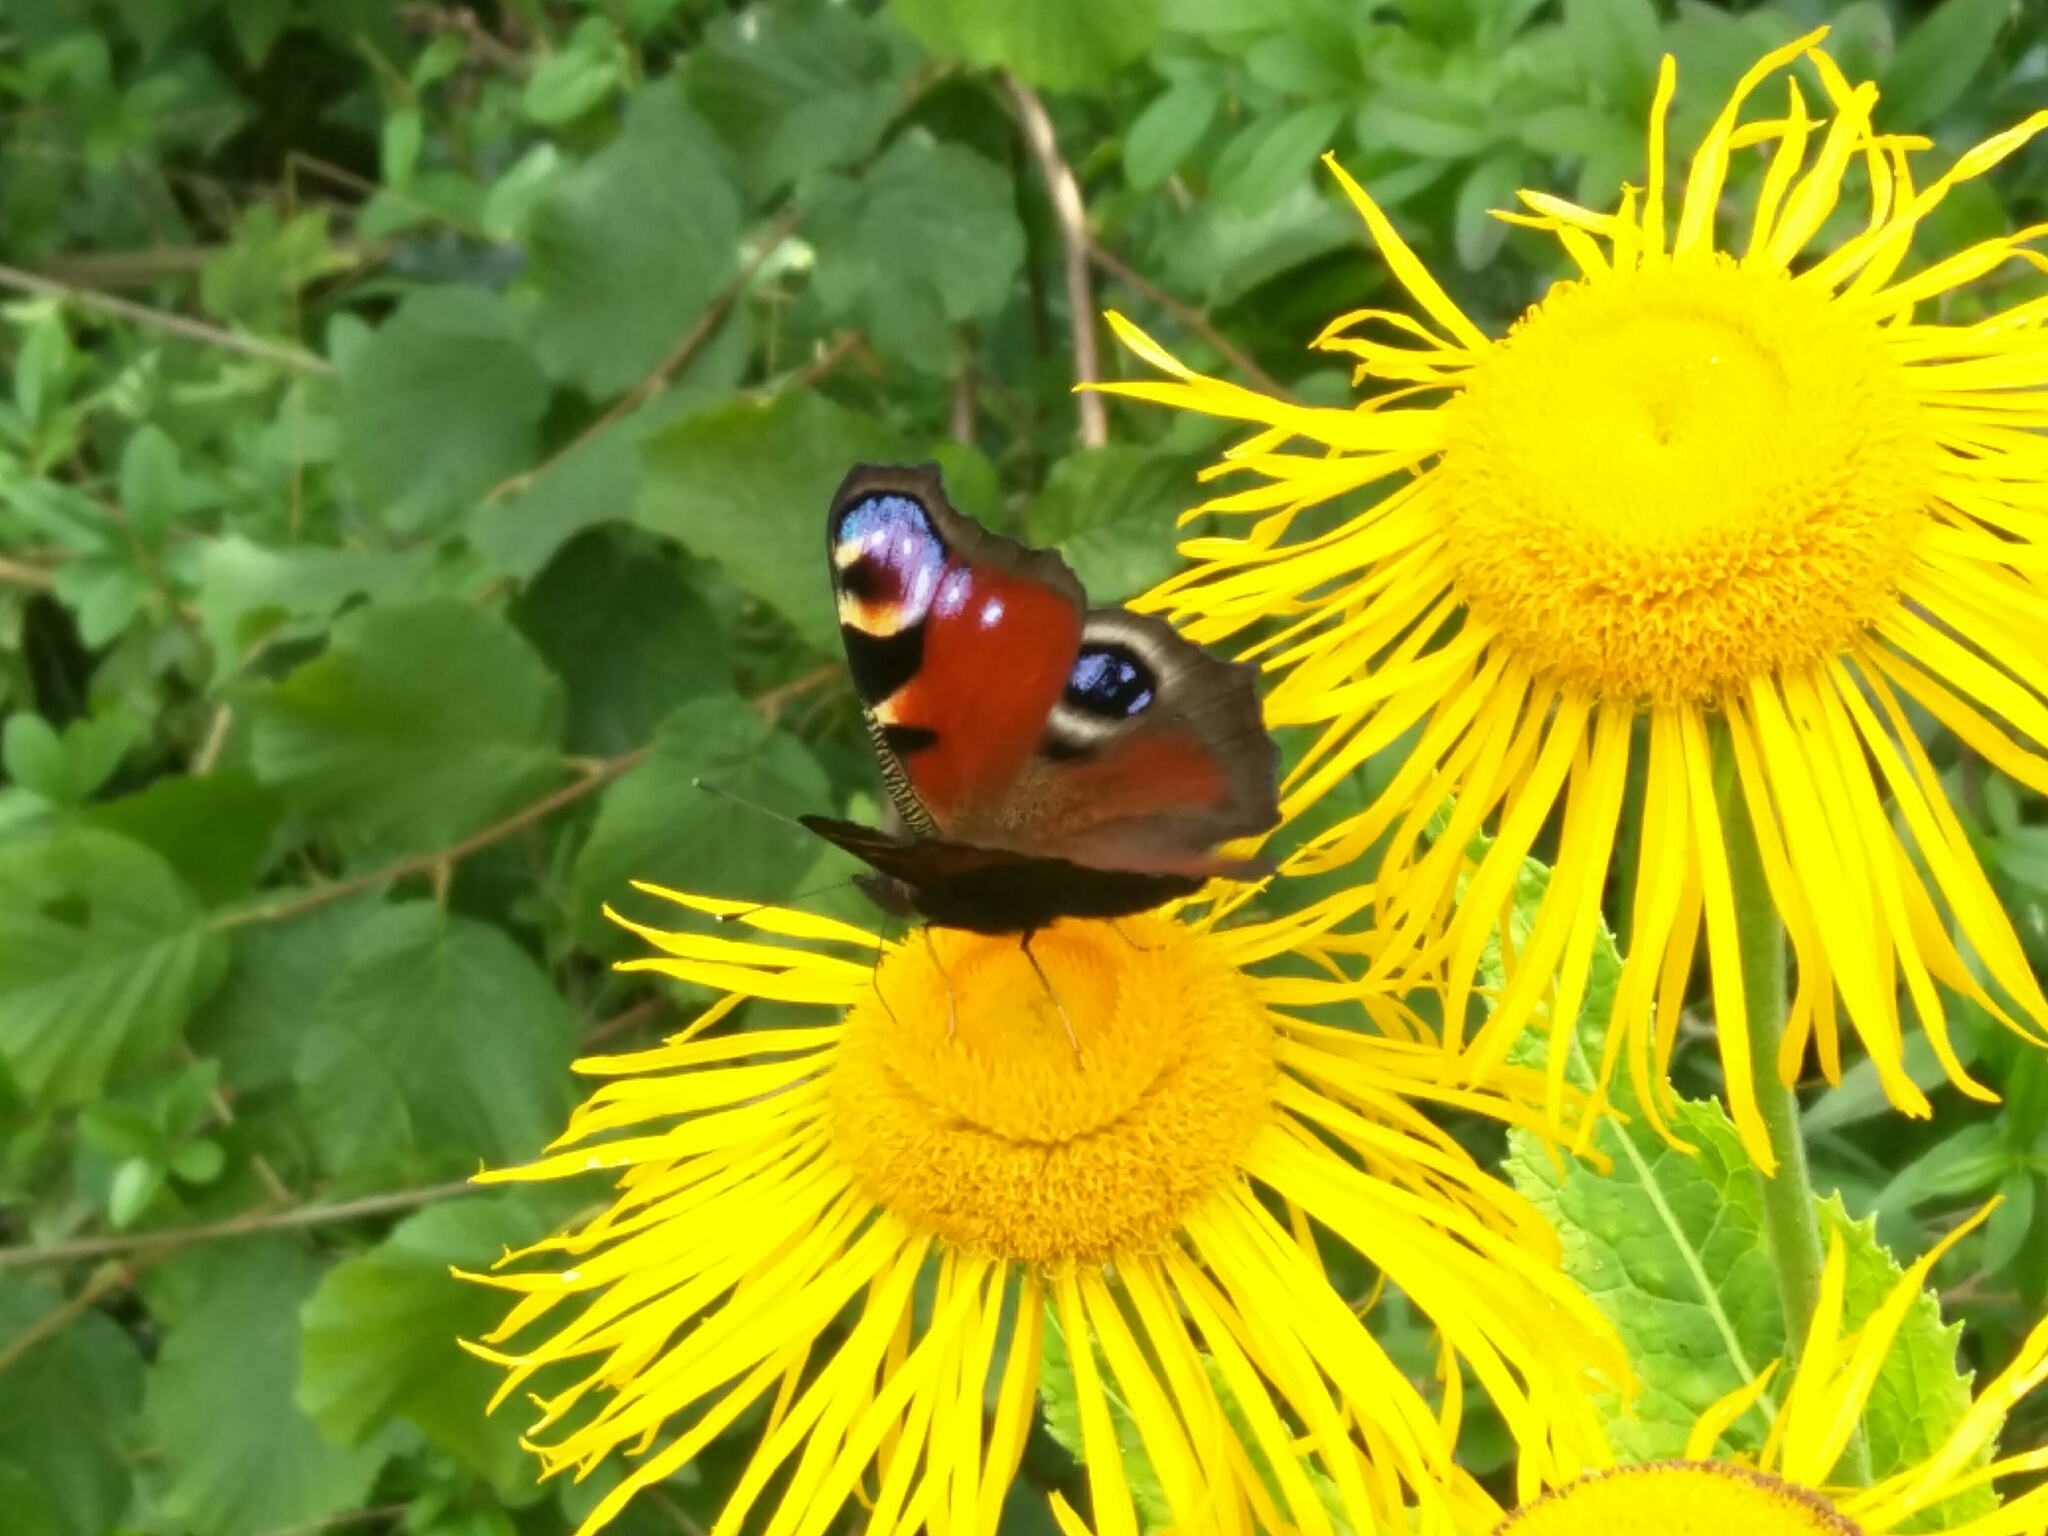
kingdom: Animalia
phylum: Arthropoda
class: Insecta
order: Lepidoptera
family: Nymphalidae
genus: Aglais
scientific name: Aglais io
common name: Peacock
